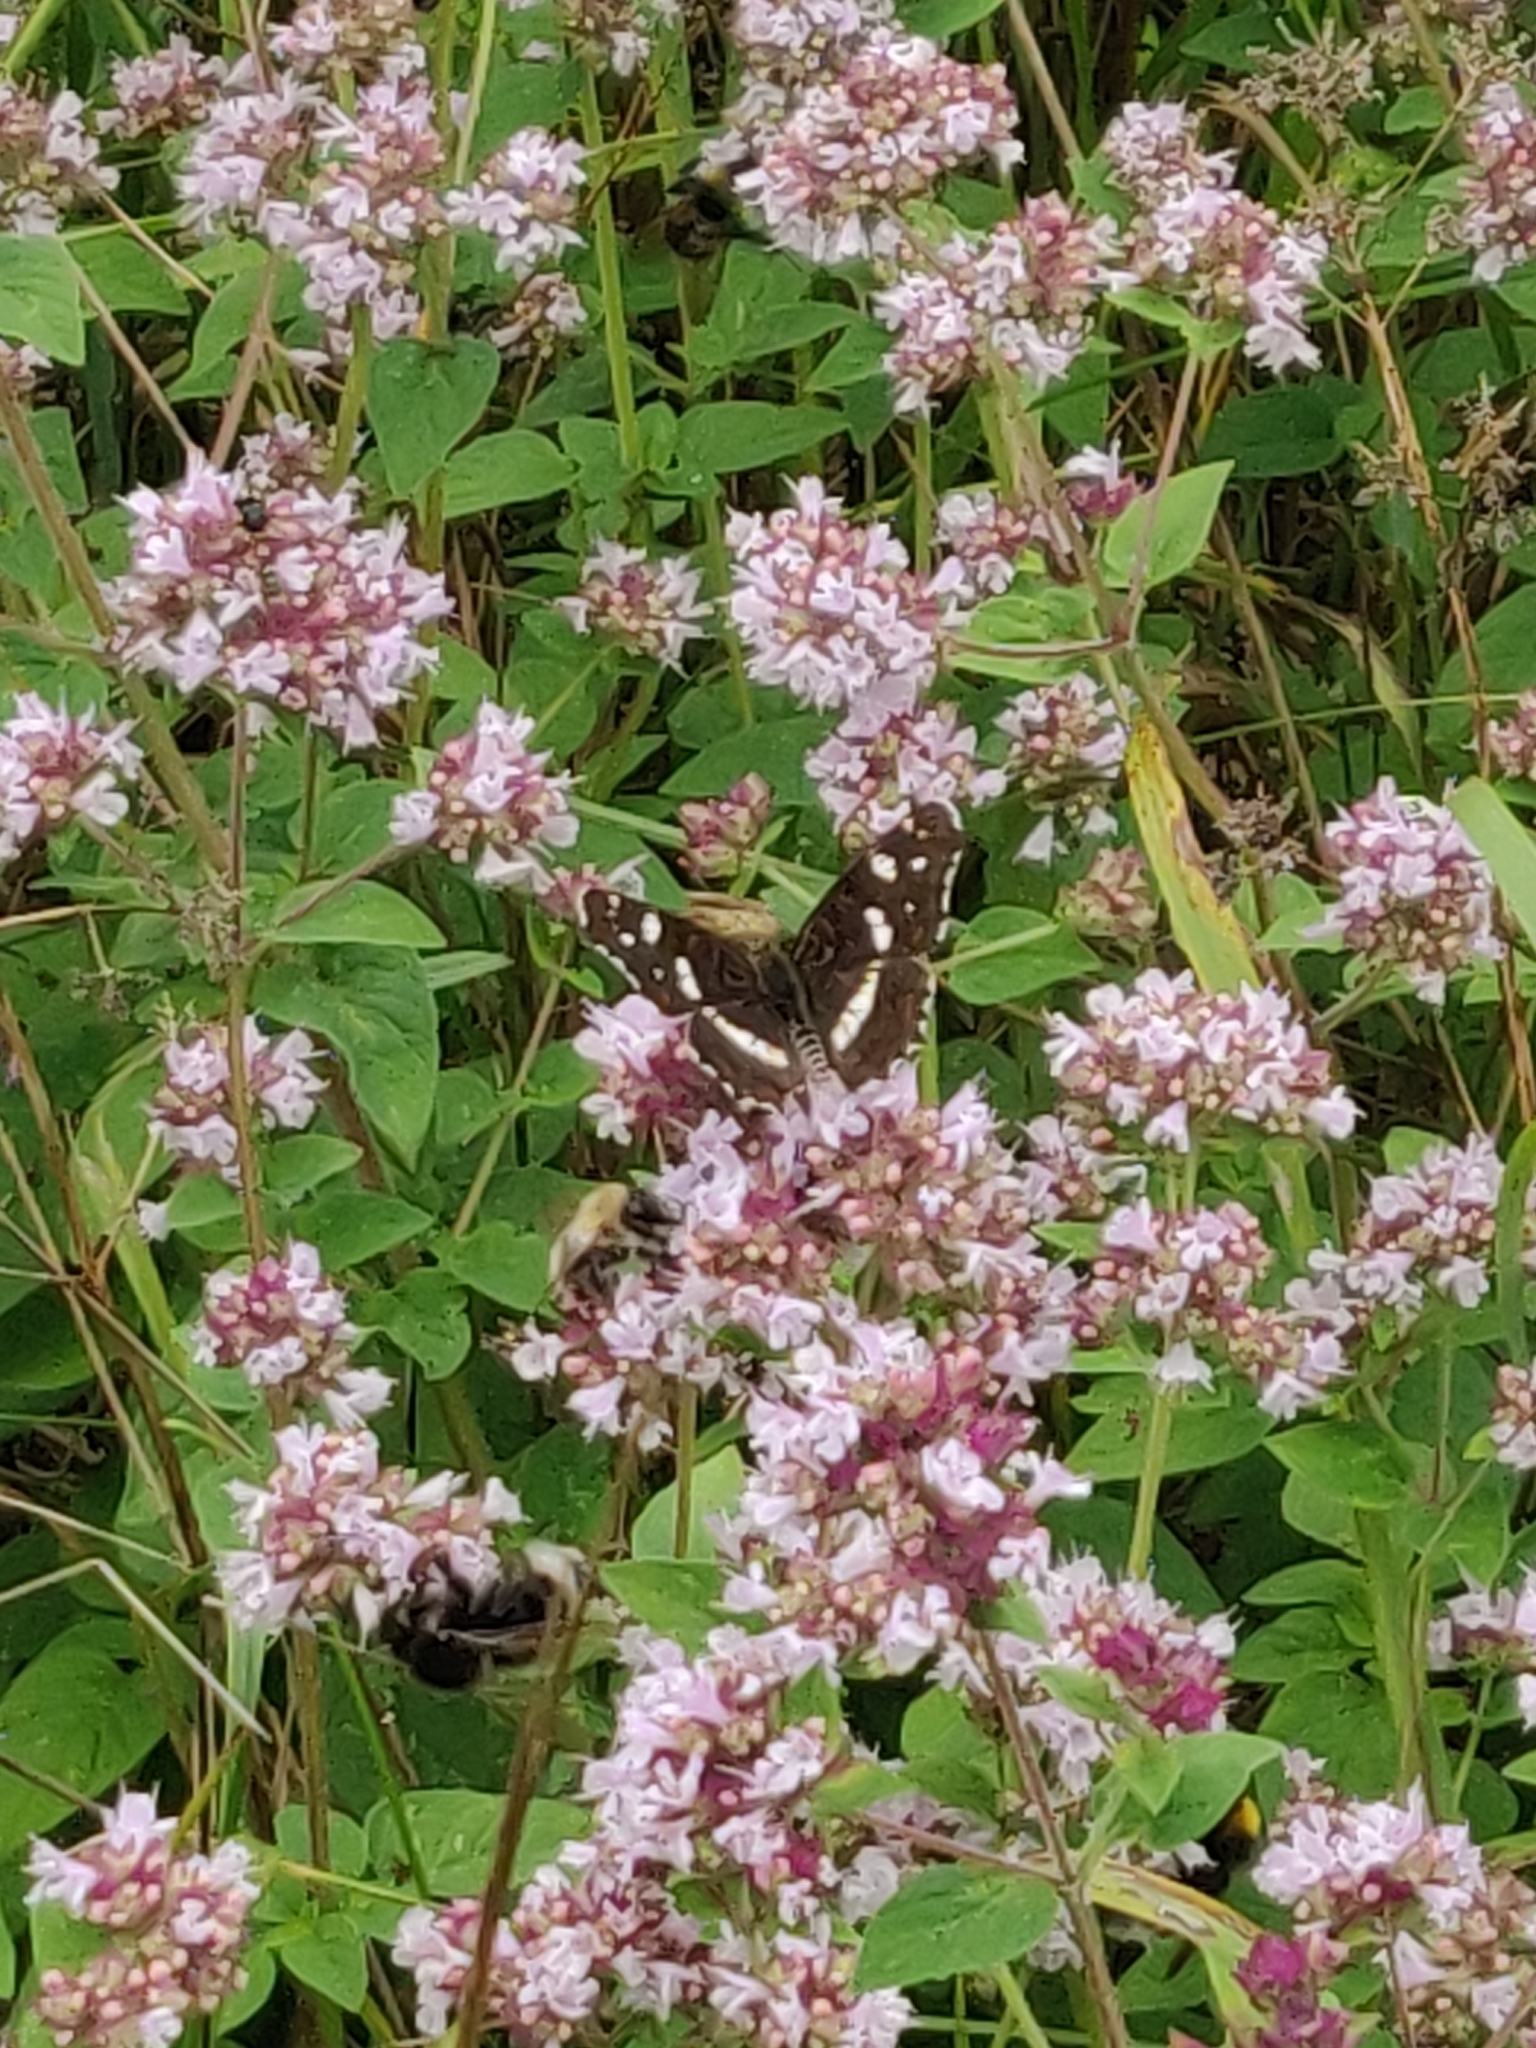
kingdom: Animalia
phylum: Arthropoda
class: Insecta
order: Lepidoptera
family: Nymphalidae
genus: Araschnia
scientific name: Araschnia levana
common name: Map butterfly
